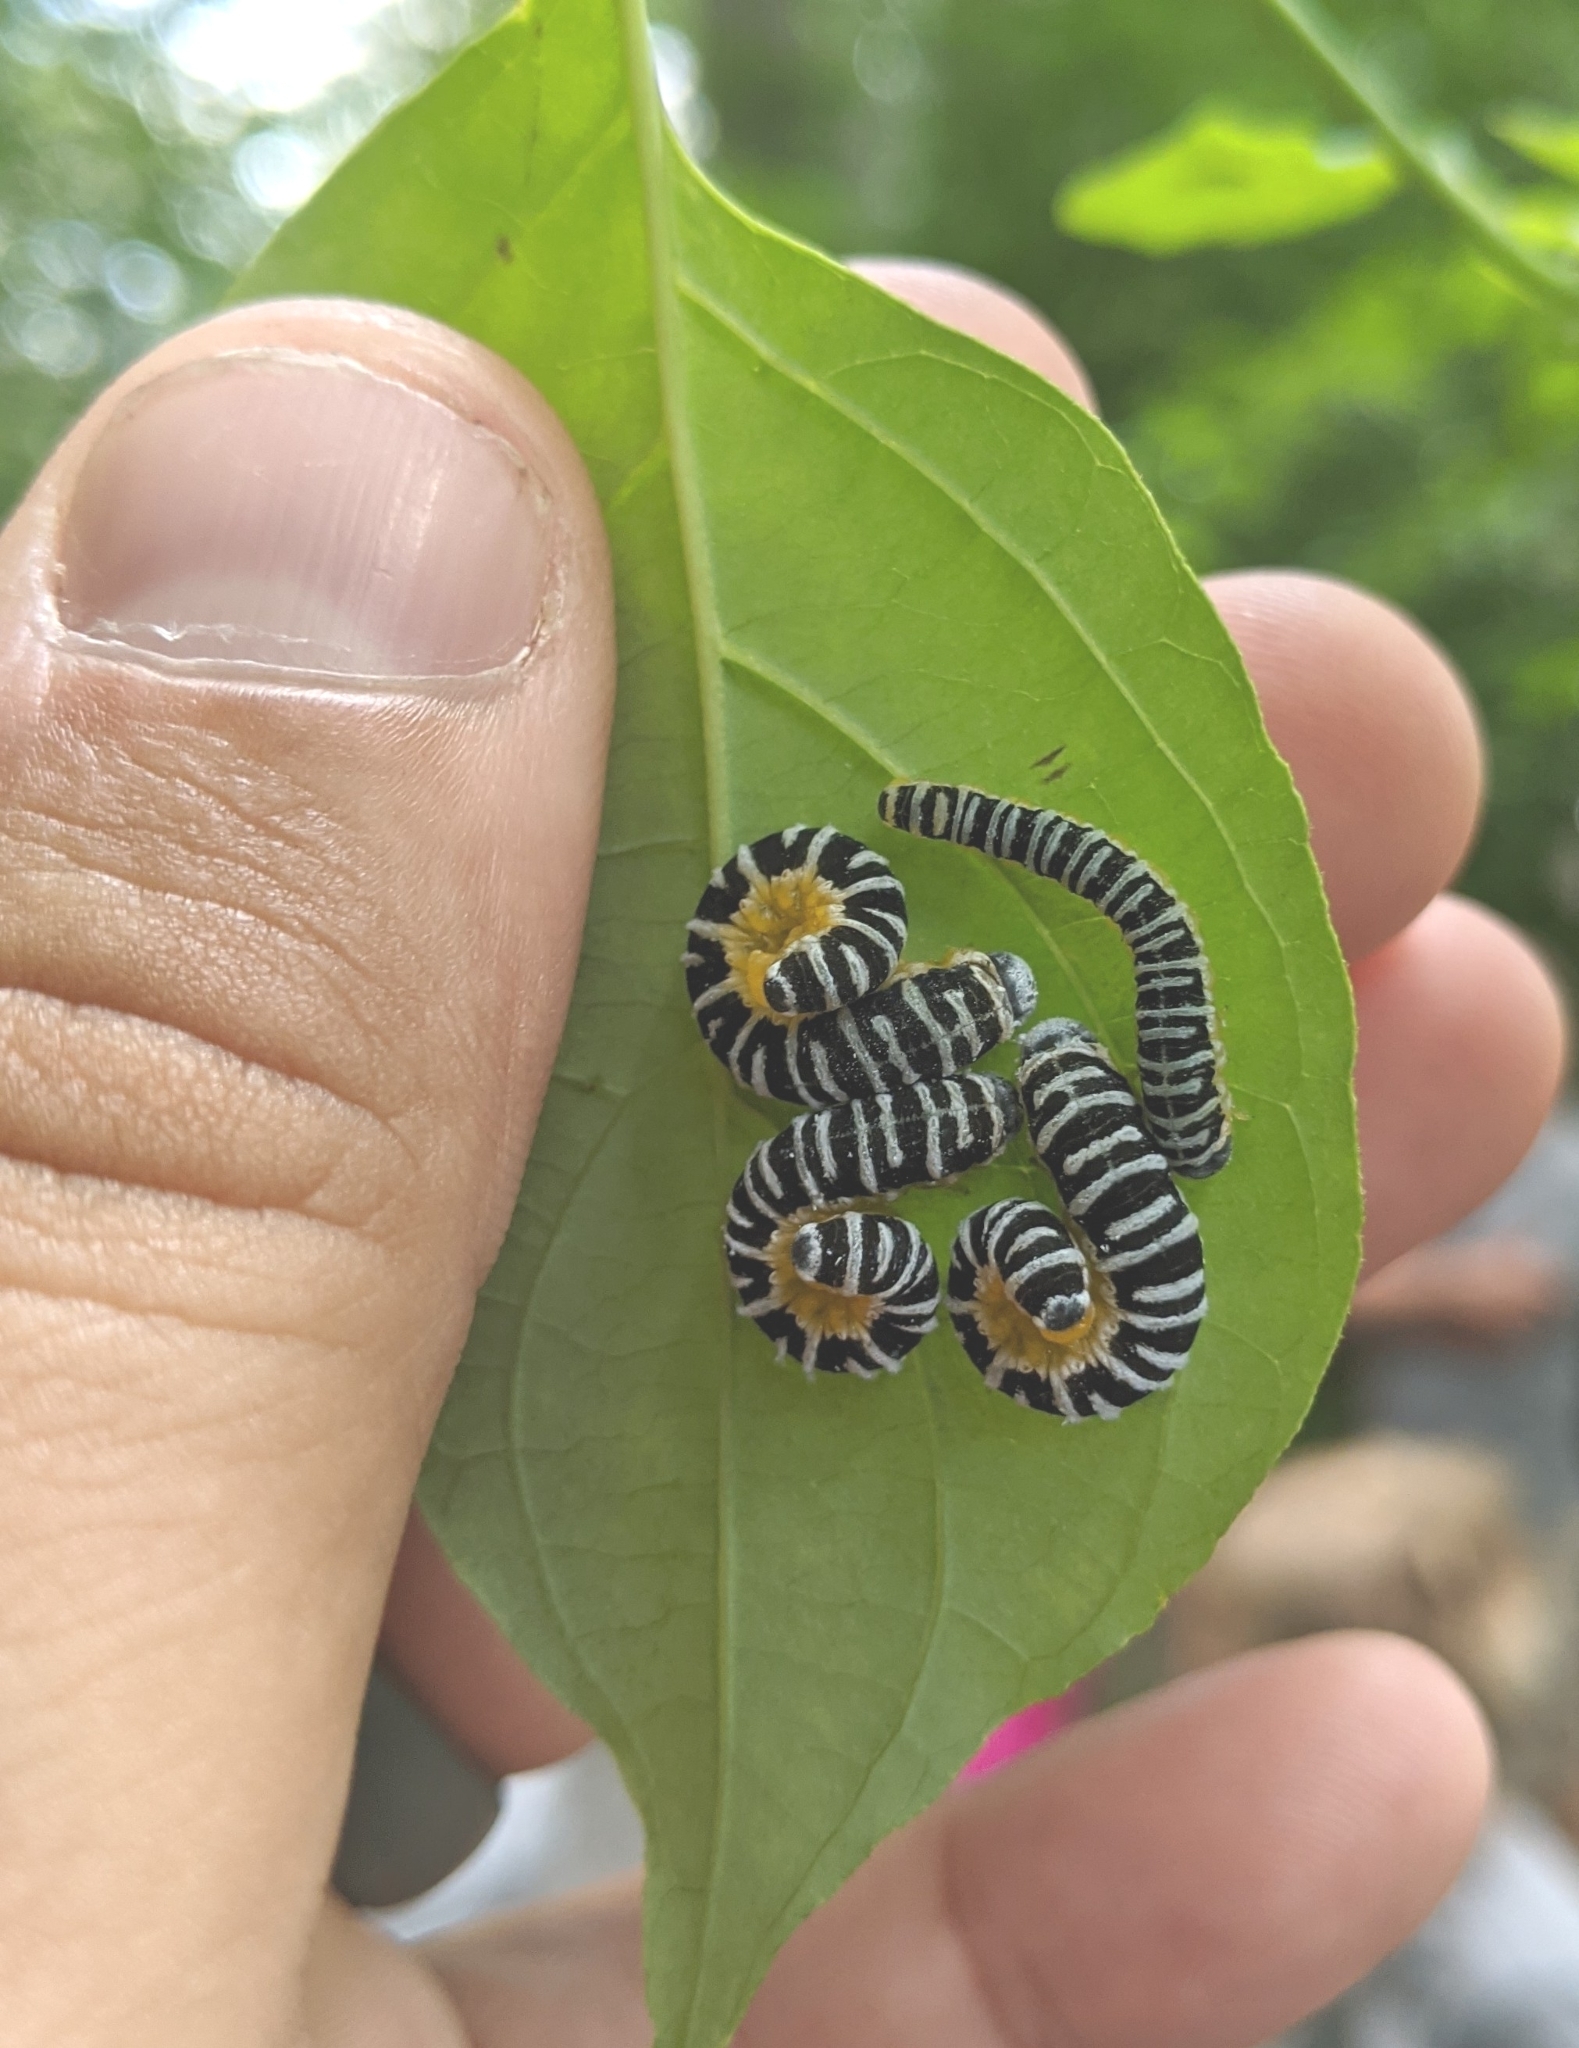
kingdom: Animalia
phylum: Arthropoda
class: Insecta
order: Hymenoptera
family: Tenthredinidae
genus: Macremphytus
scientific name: Macremphytus
